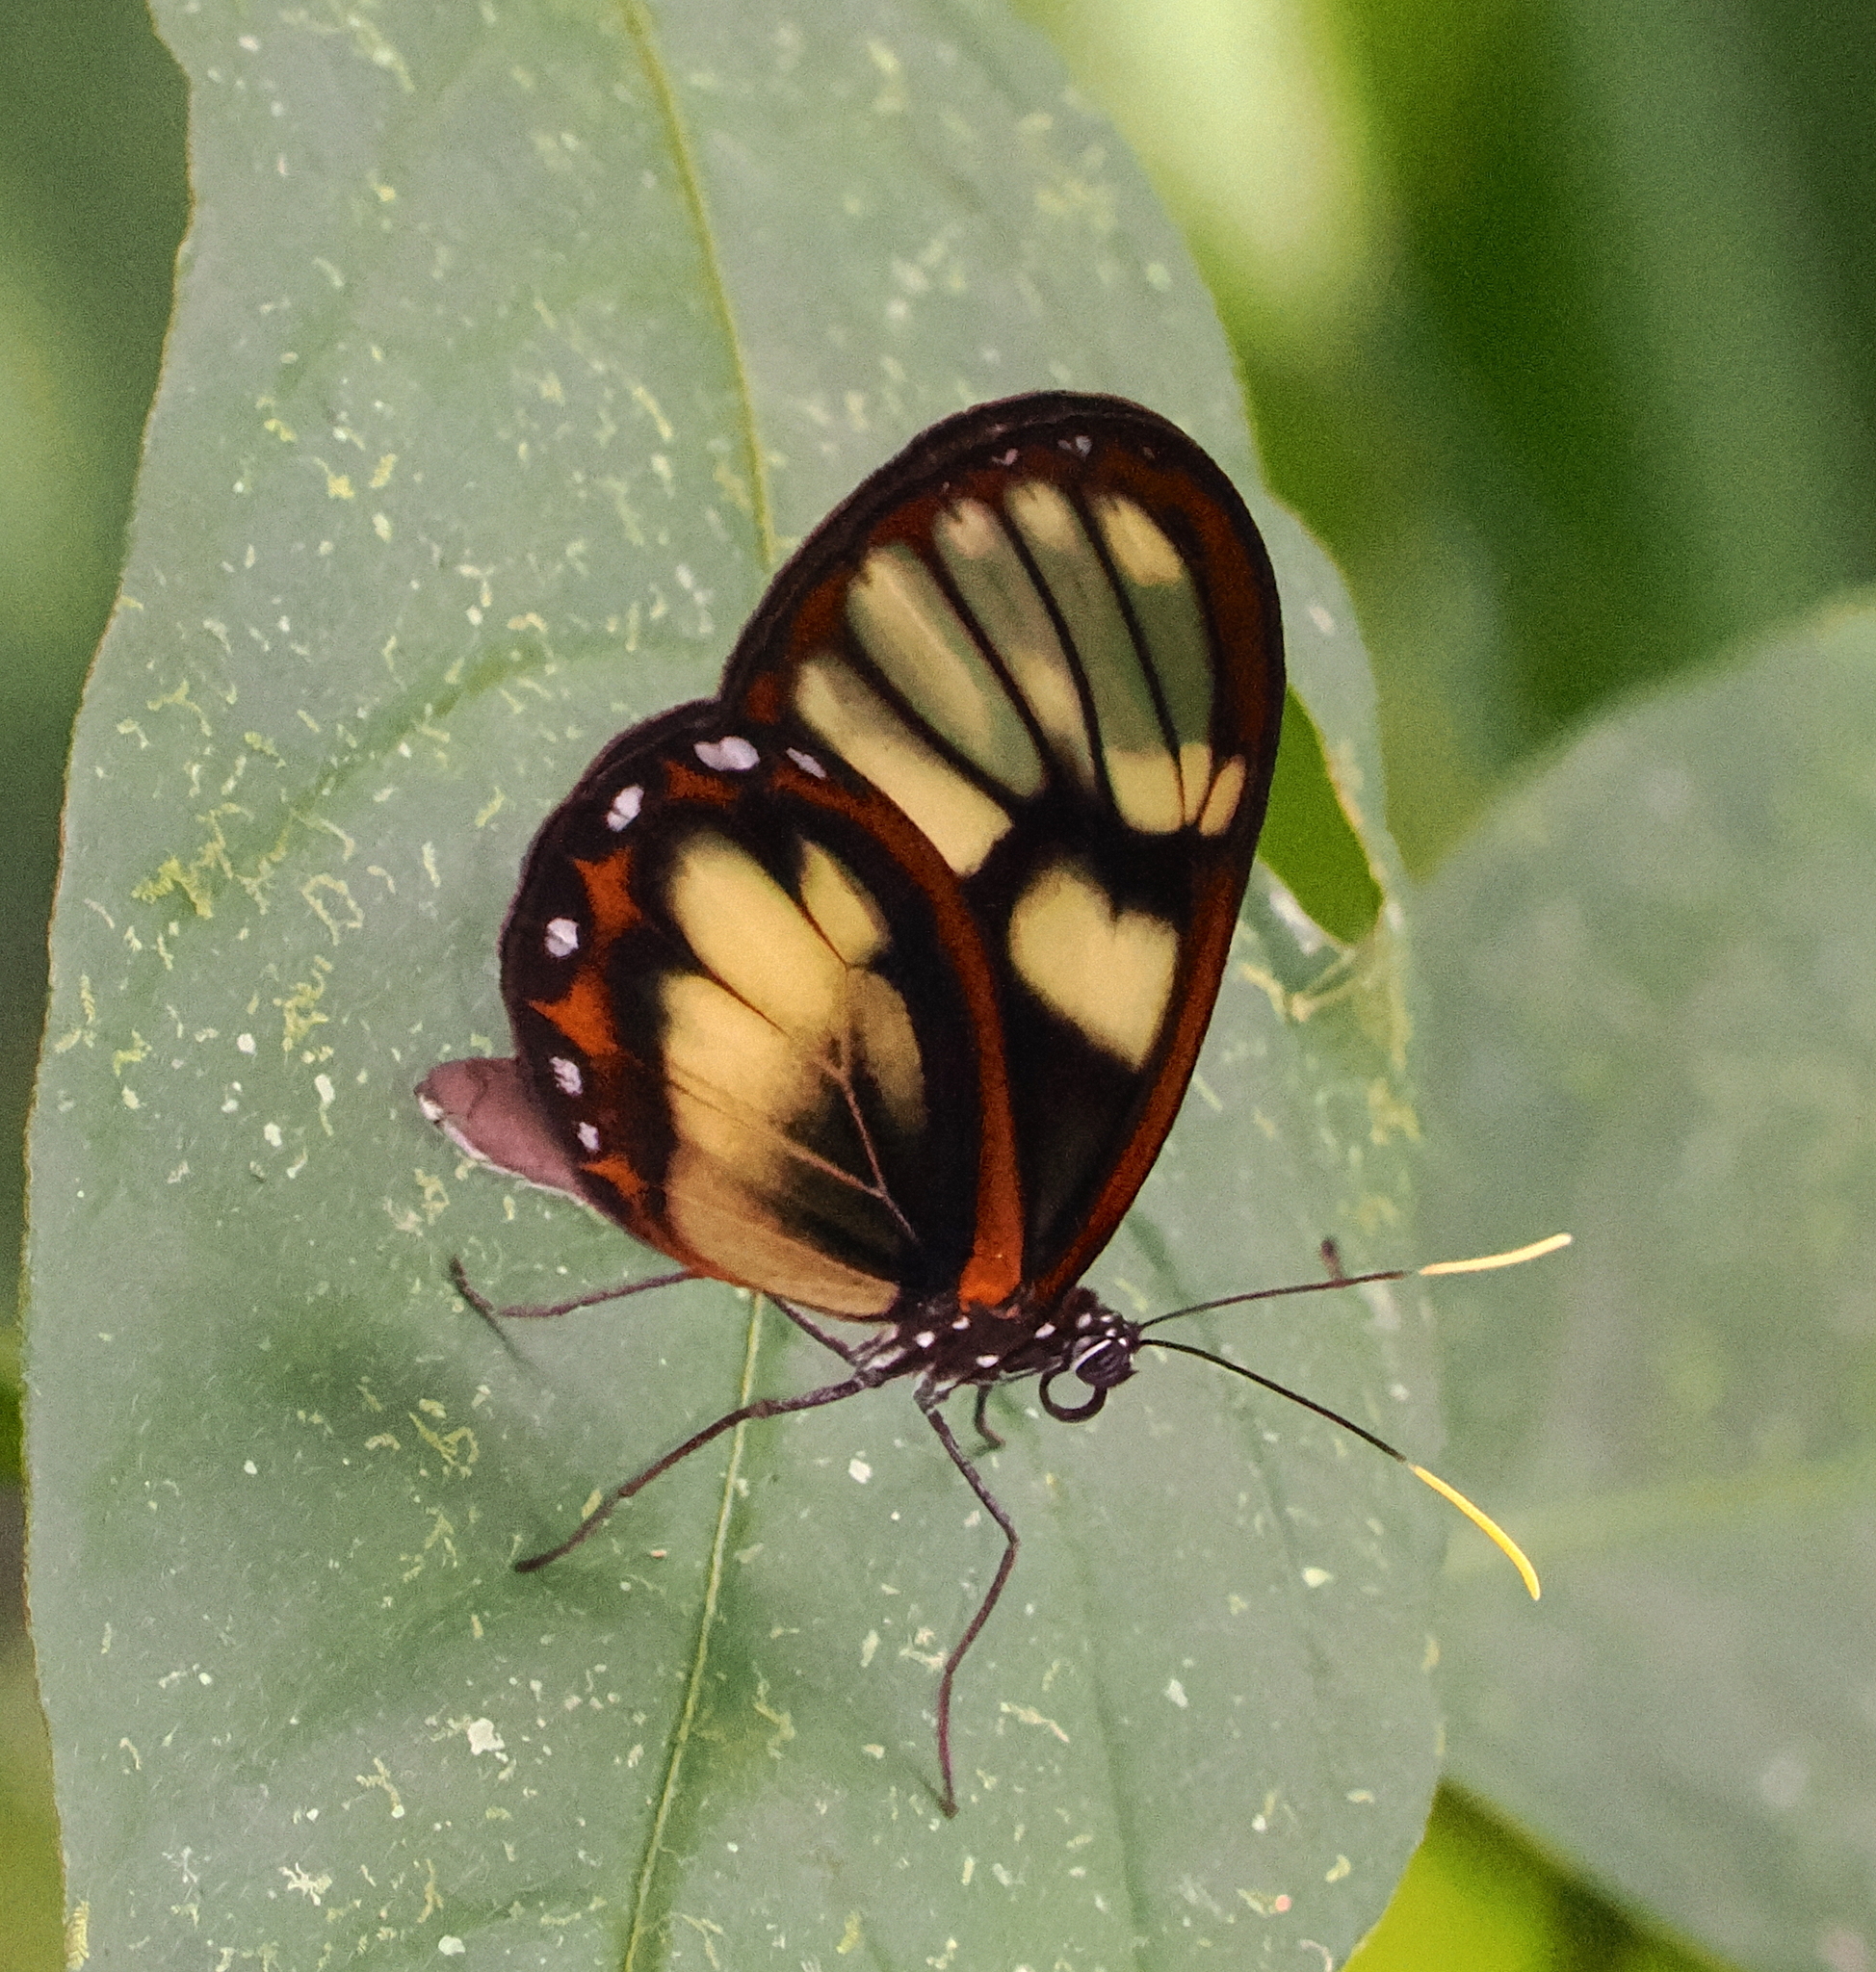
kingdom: Animalia
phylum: Arthropoda
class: Insecta
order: Lepidoptera
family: Nymphalidae
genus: Godyris
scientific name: Godyris zavaleta
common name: Zavaleta glasswing
